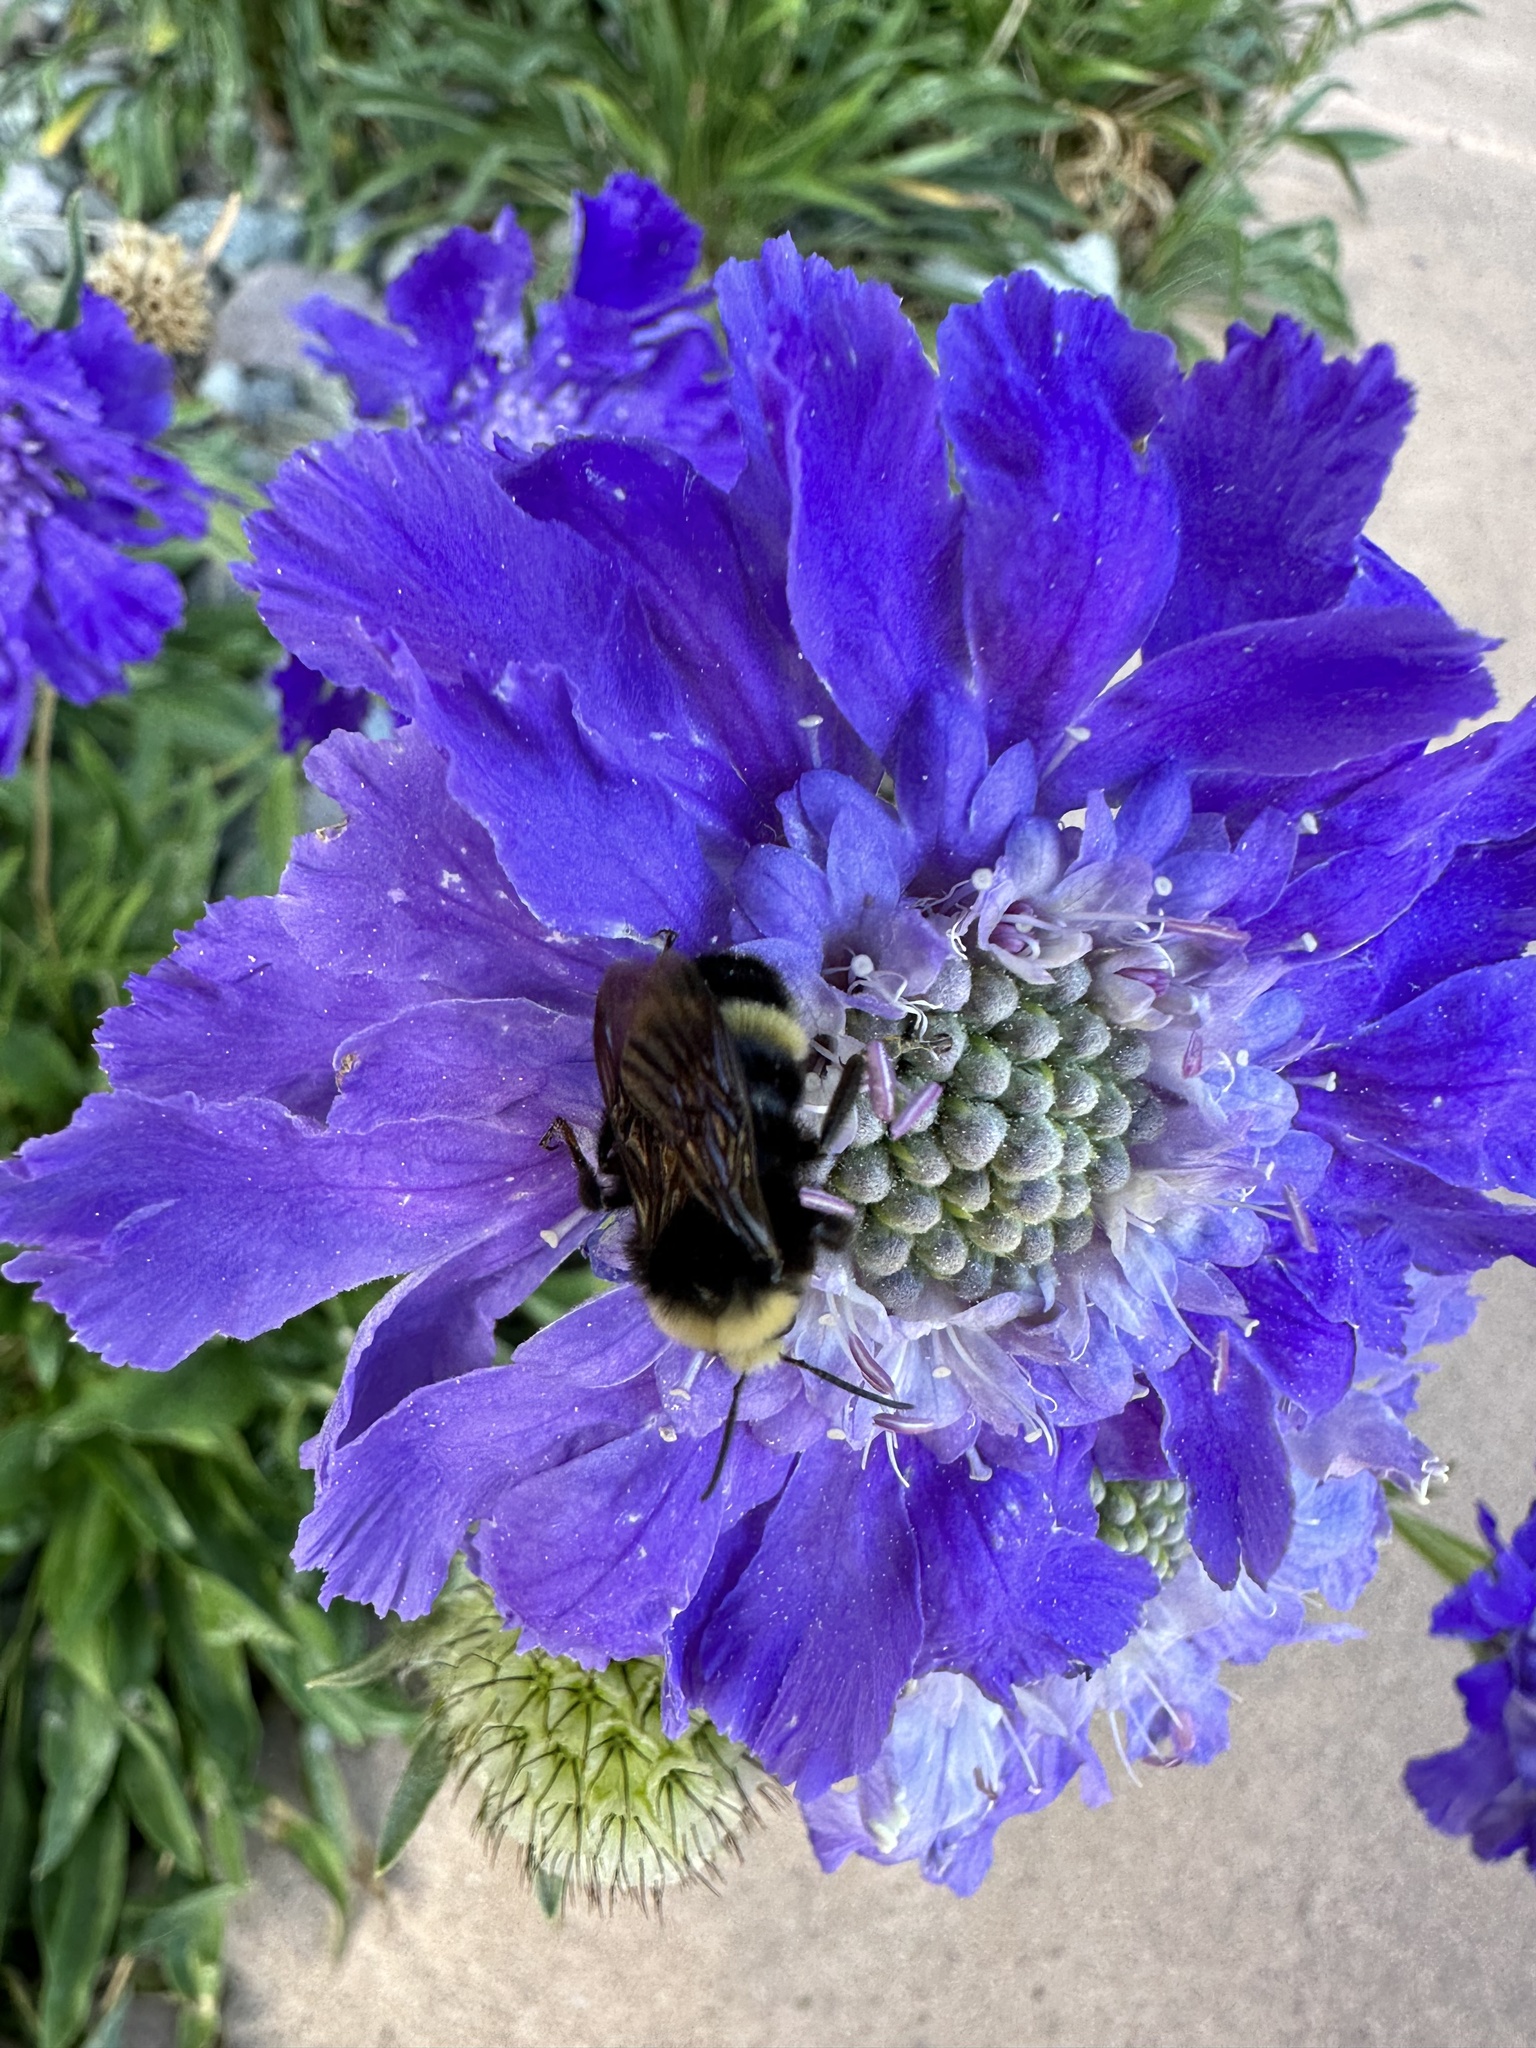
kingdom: Animalia
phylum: Arthropoda
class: Insecta
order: Hymenoptera
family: Apidae
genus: Bombus
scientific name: Bombus vandykei
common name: Van dyke bumble bee
